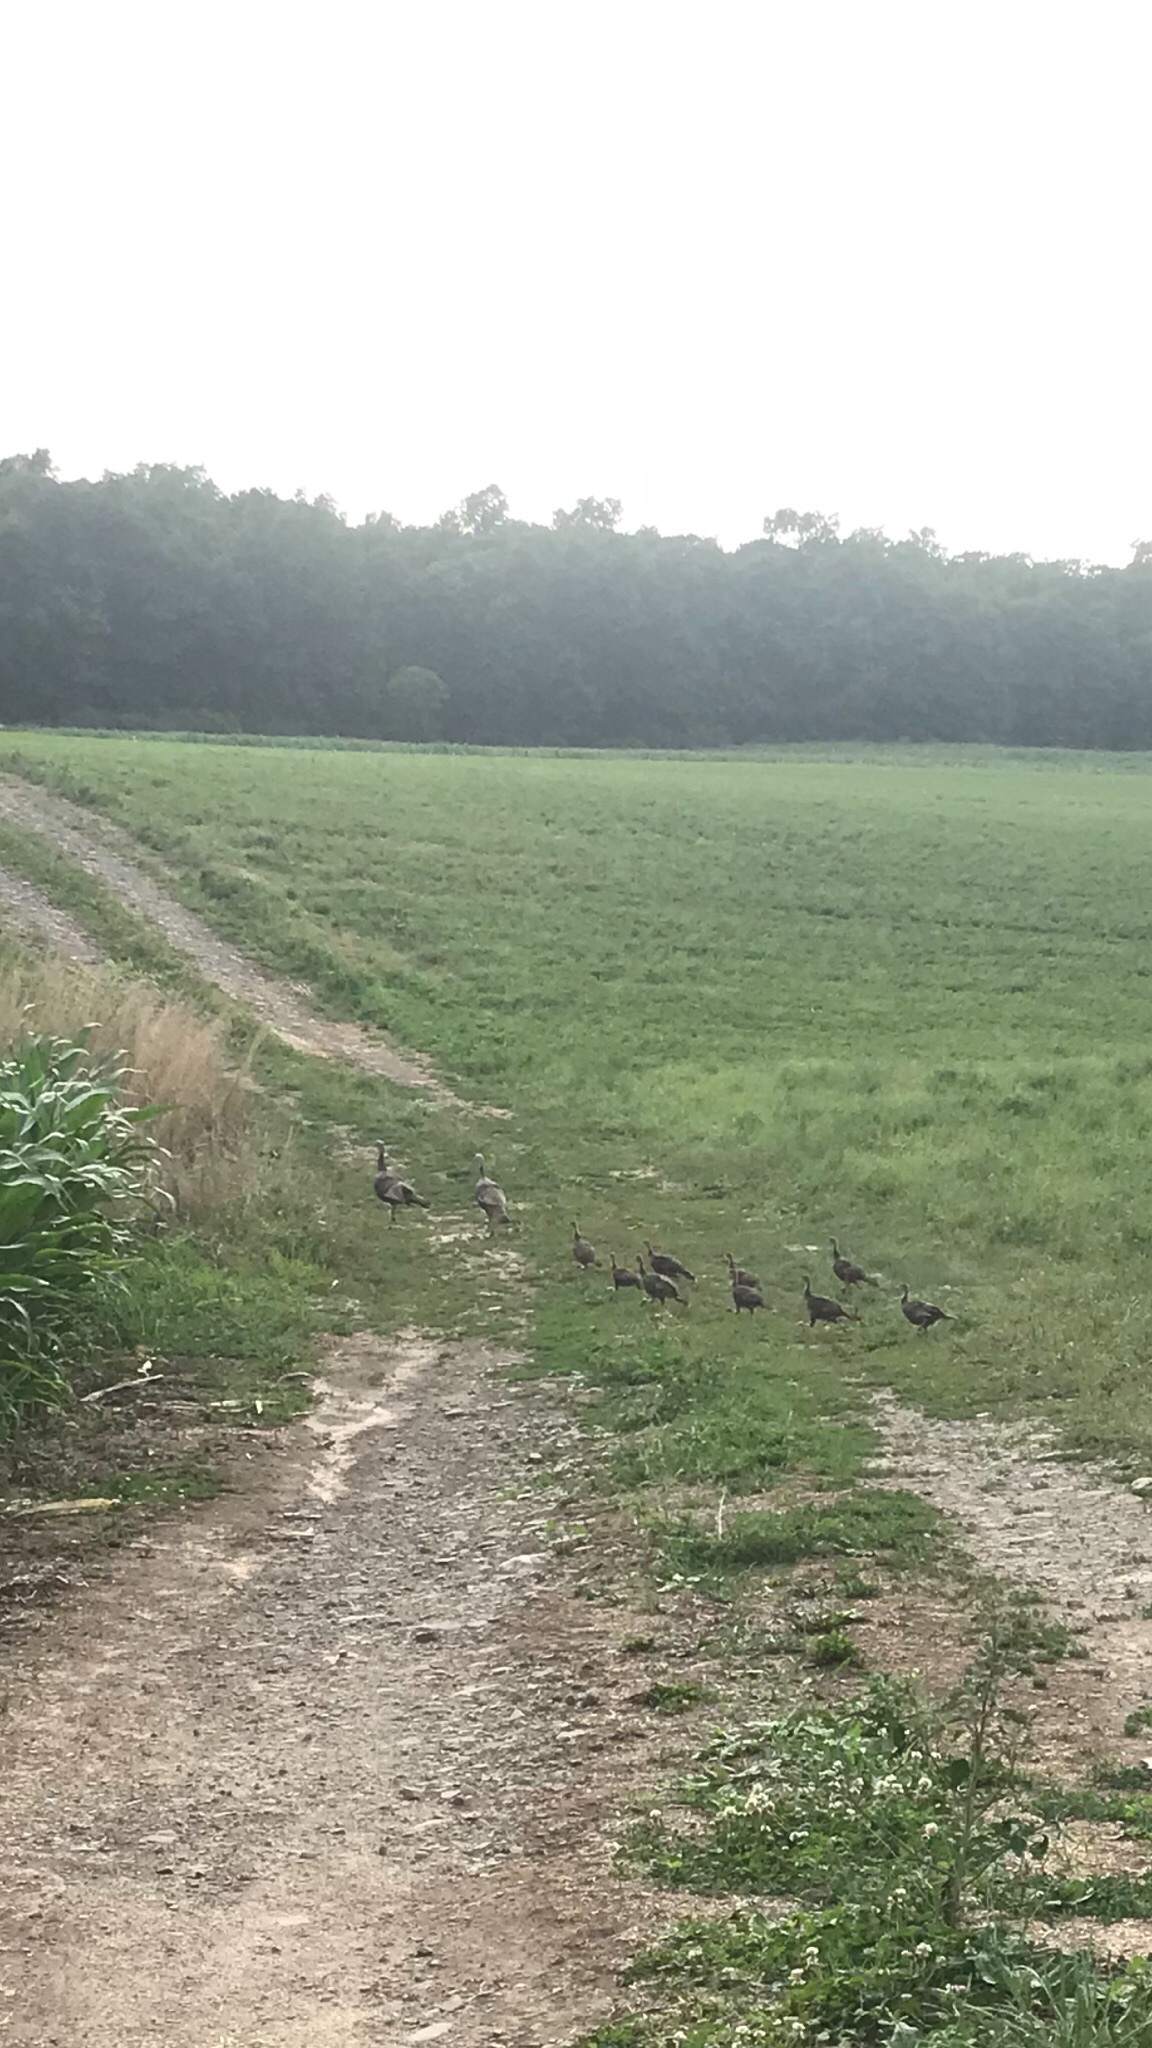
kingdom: Animalia
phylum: Chordata
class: Aves
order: Galliformes
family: Phasianidae
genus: Meleagris
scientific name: Meleagris gallopavo
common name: Wild turkey
